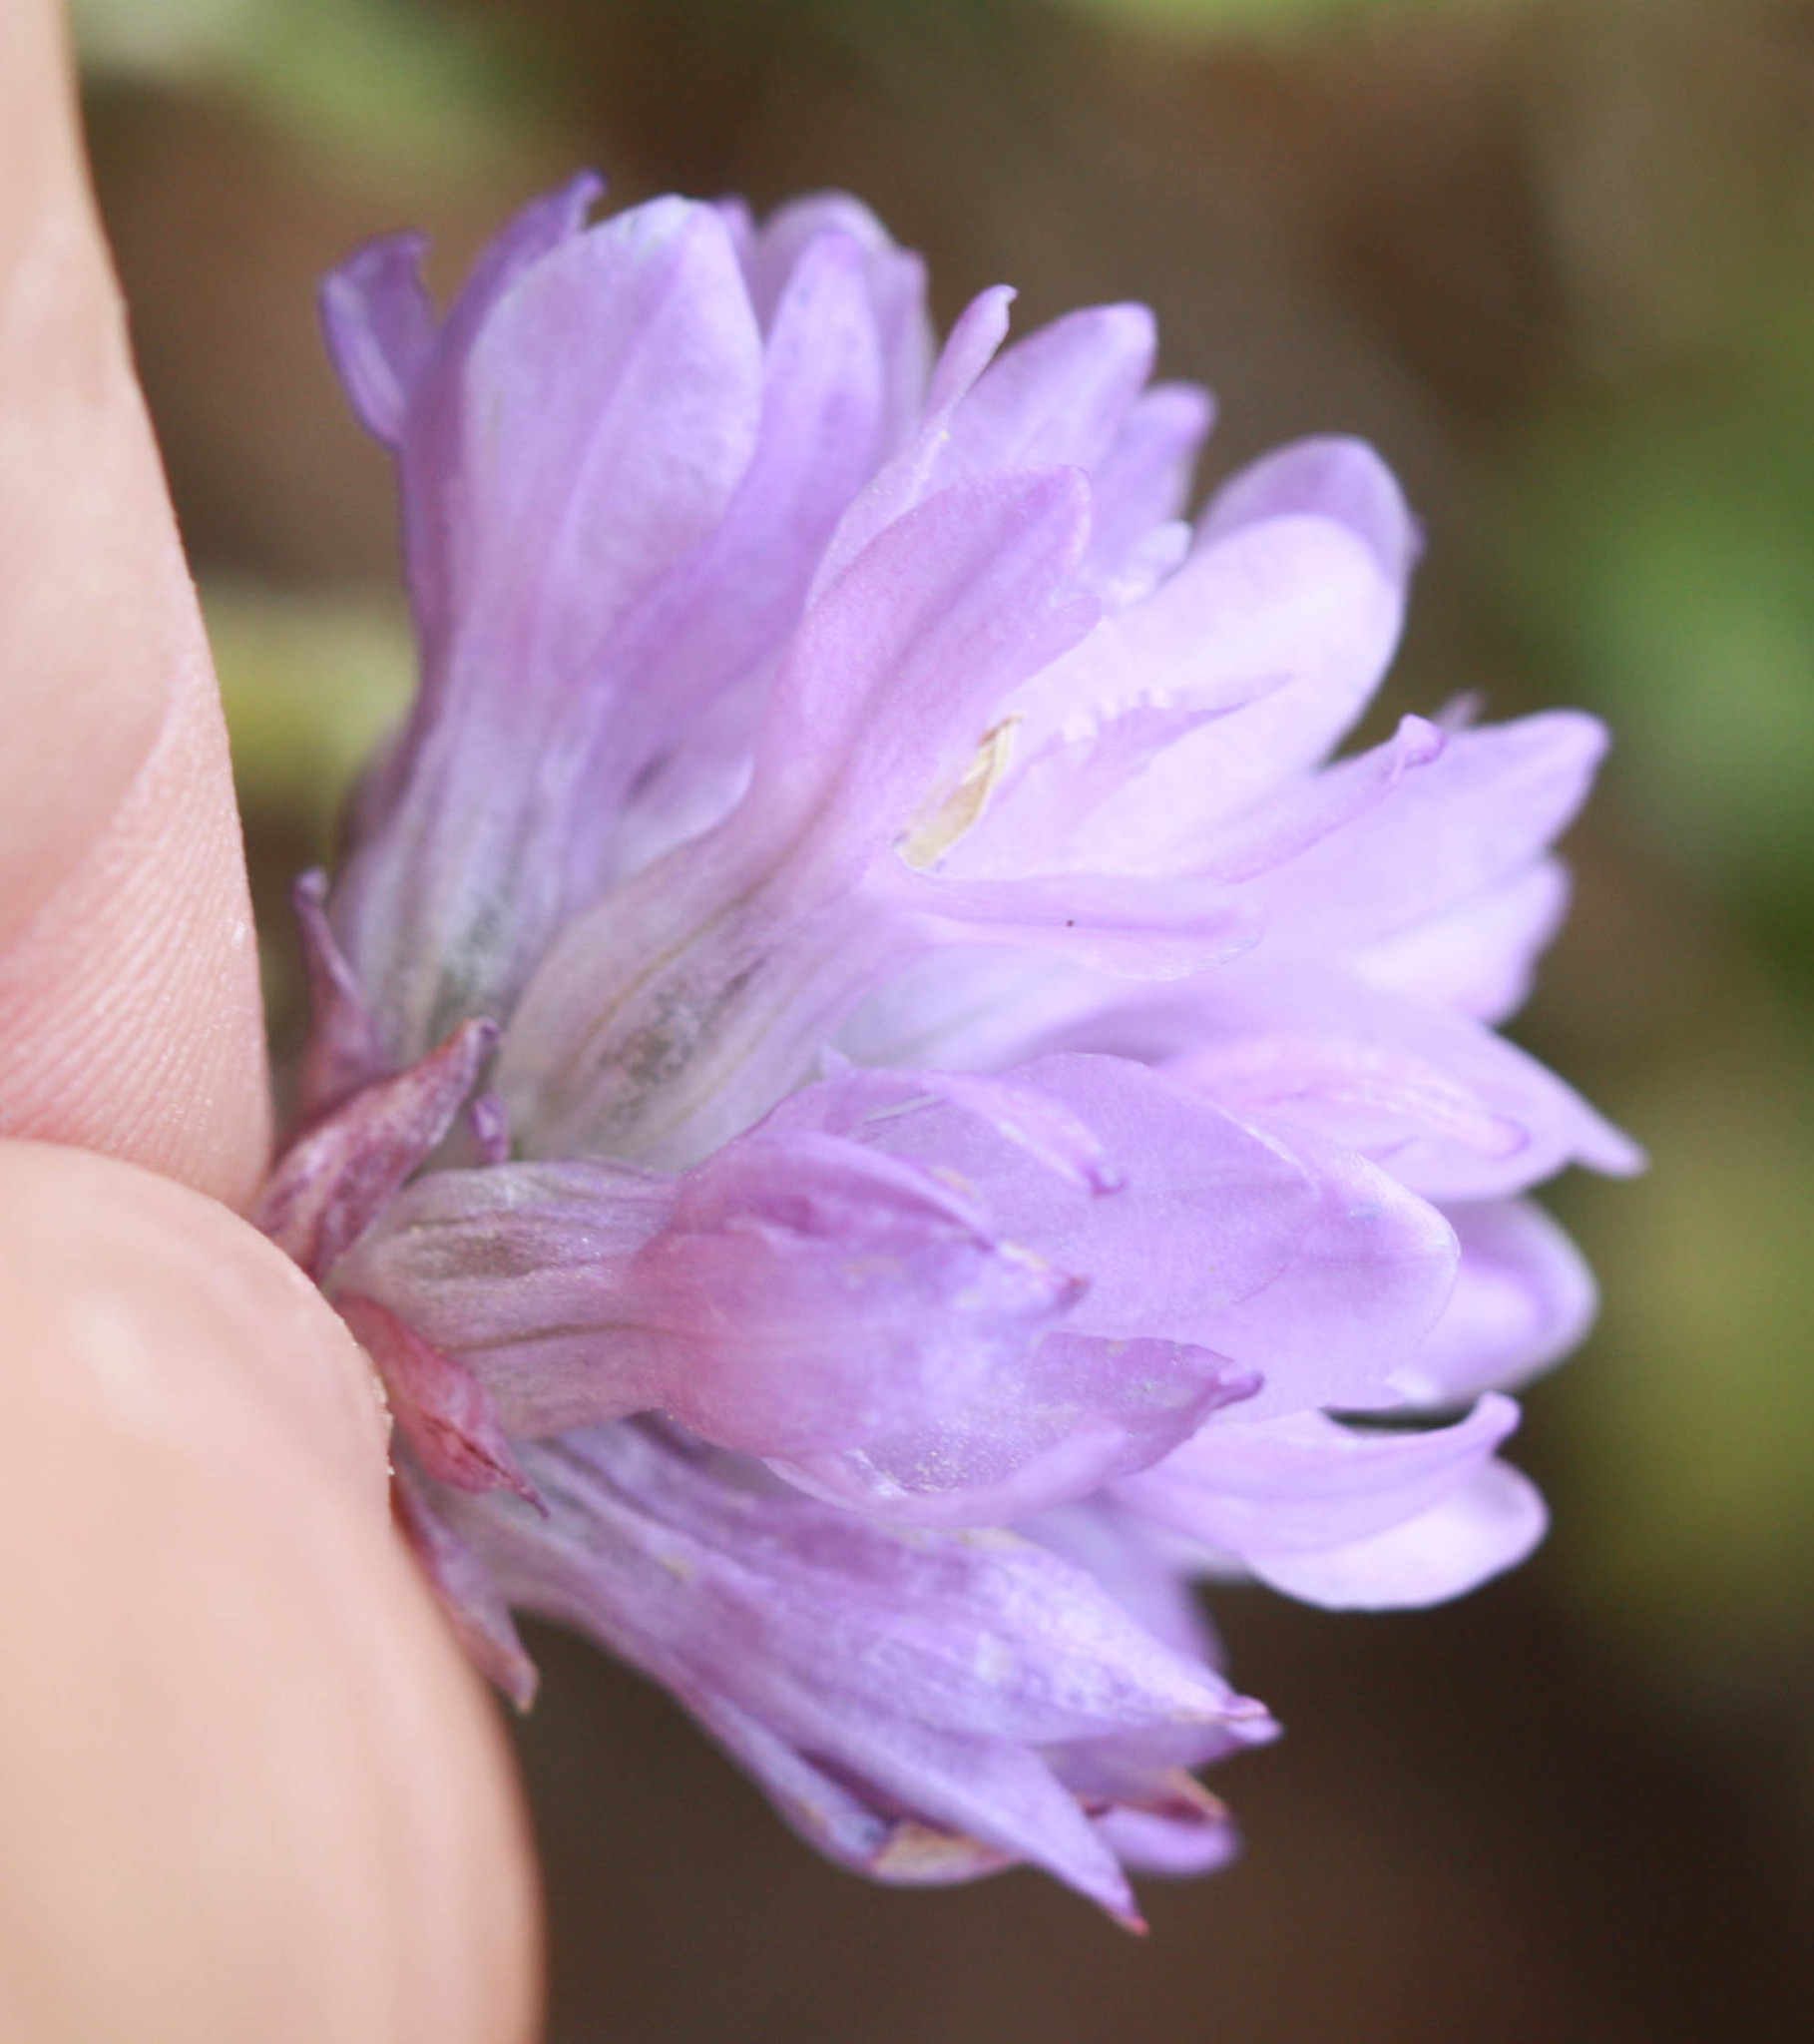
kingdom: Plantae
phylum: Tracheophyta
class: Liliopsida
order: Asparagales
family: Asparagaceae
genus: Dichelostemma
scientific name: Dichelostemma congestum
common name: Fork-tooth ookow
